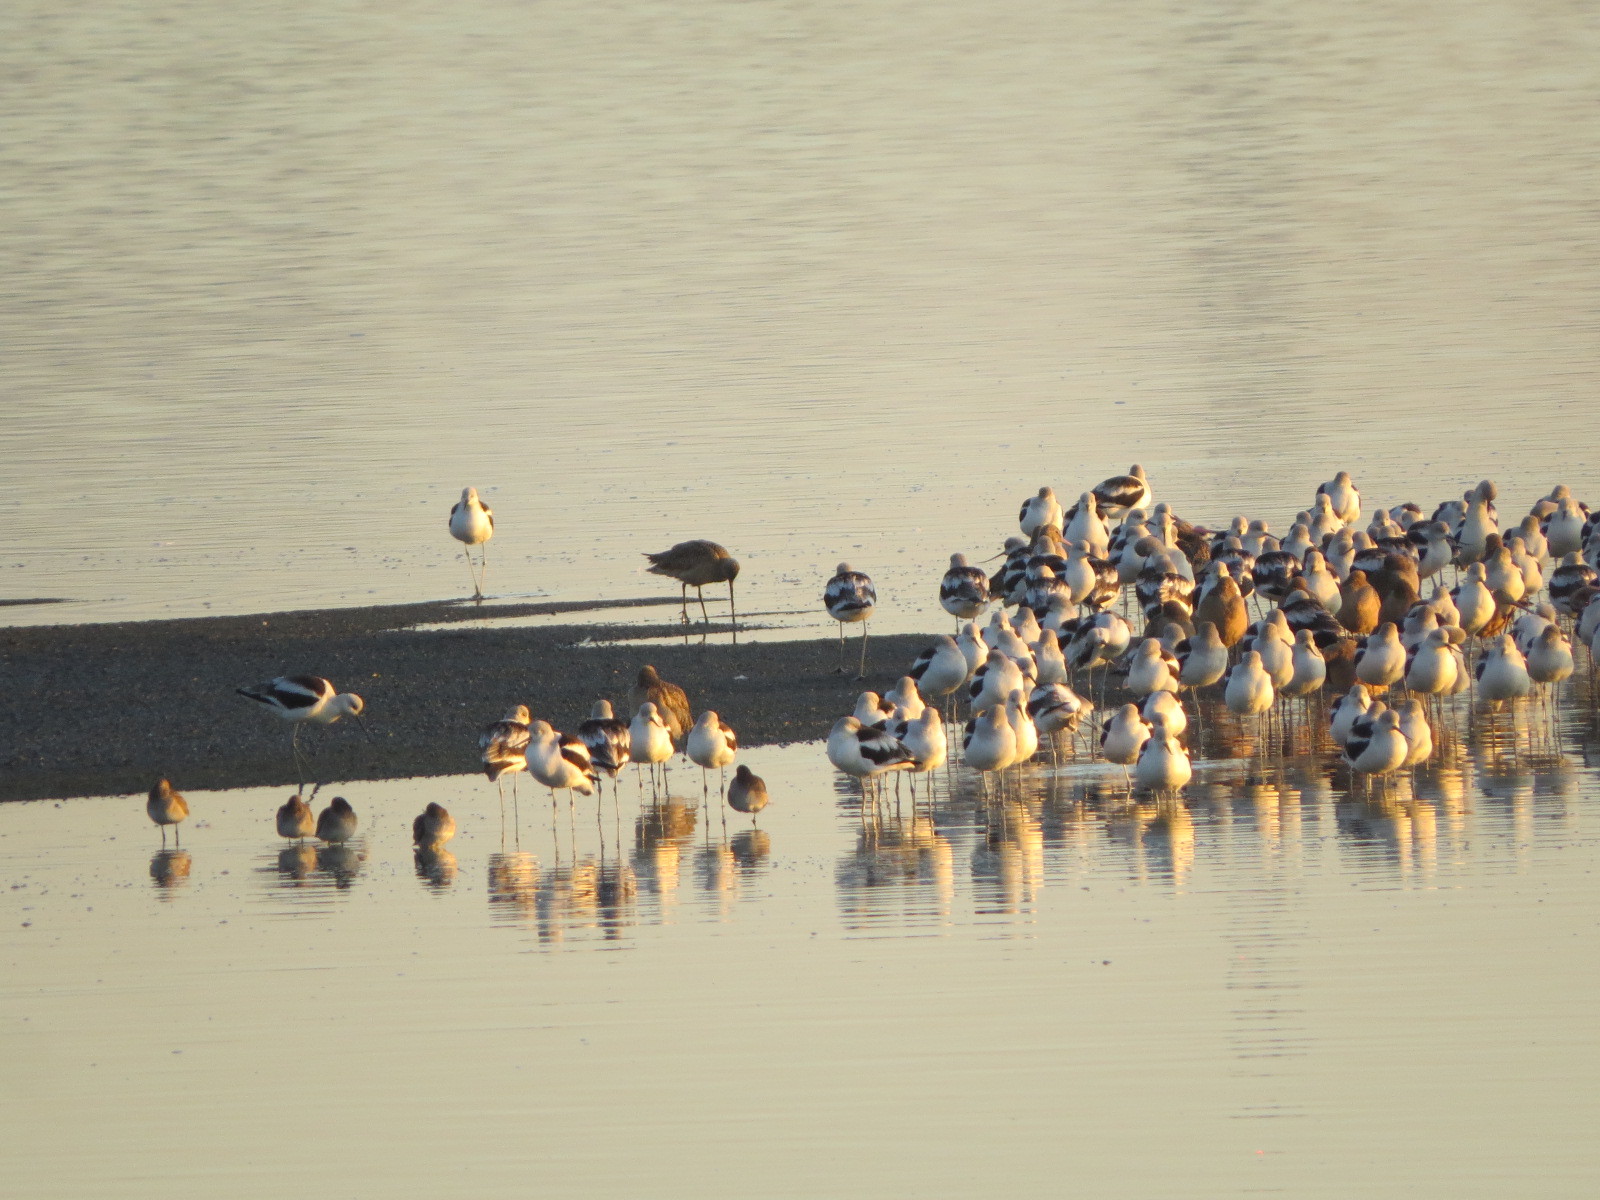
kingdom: Animalia
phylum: Chordata
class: Aves
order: Charadriiformes
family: Recurvirostridae
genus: Recurvirostra
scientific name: Recurvirostra americana
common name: American avocet
